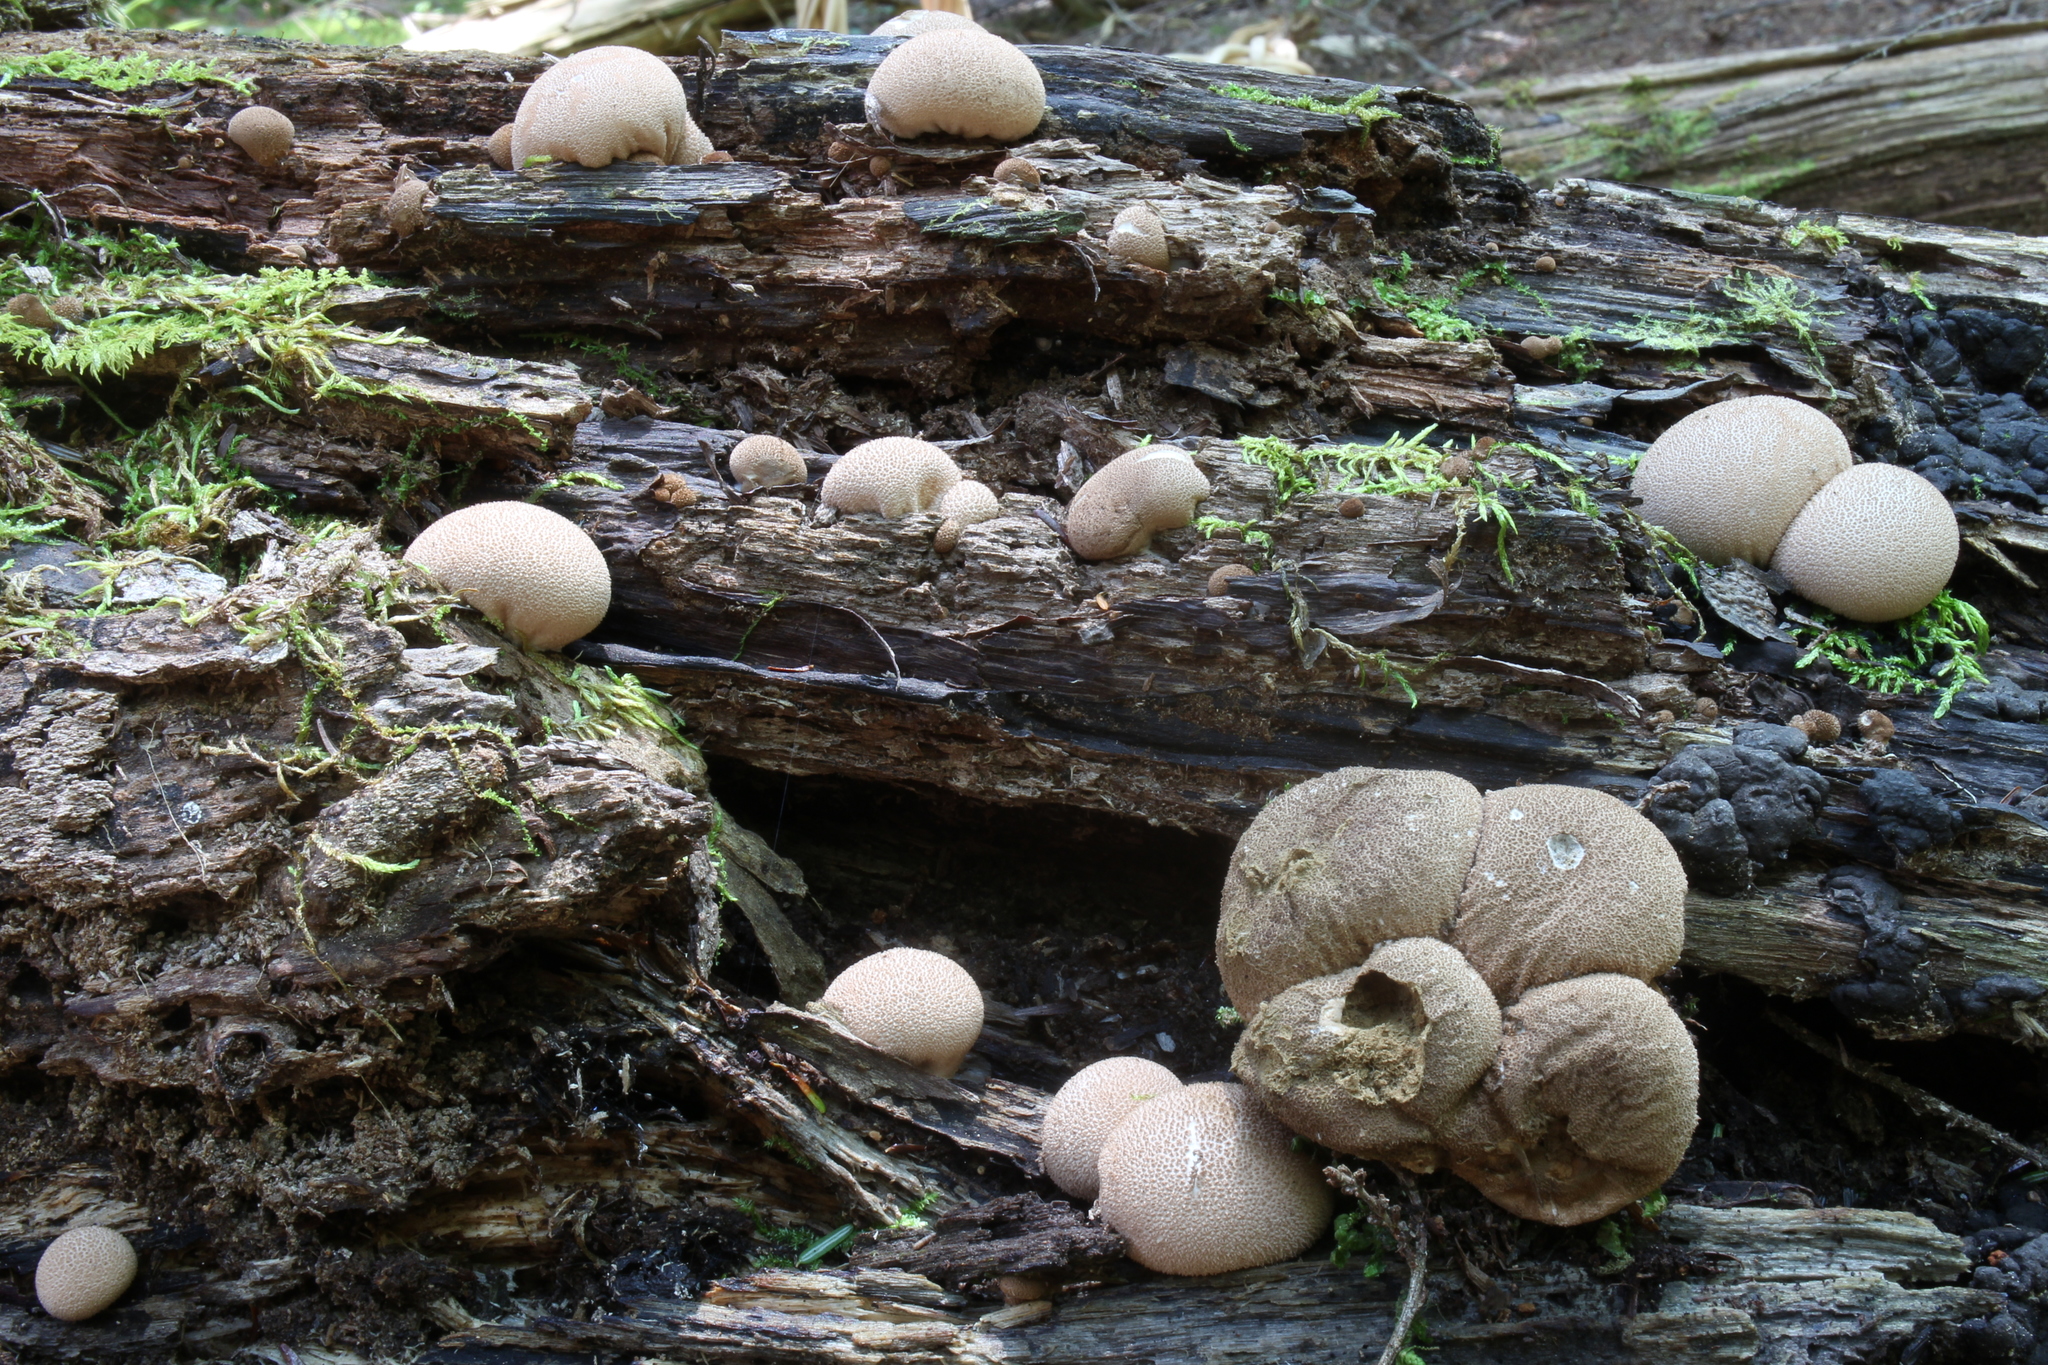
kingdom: Fungi
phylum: Basidiomycota
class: Agaricomycetes
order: Agaricales
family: Lycoperdaceae
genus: Apioperdon
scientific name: Apioperdon pyriforme
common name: Pear-shaped puffball
